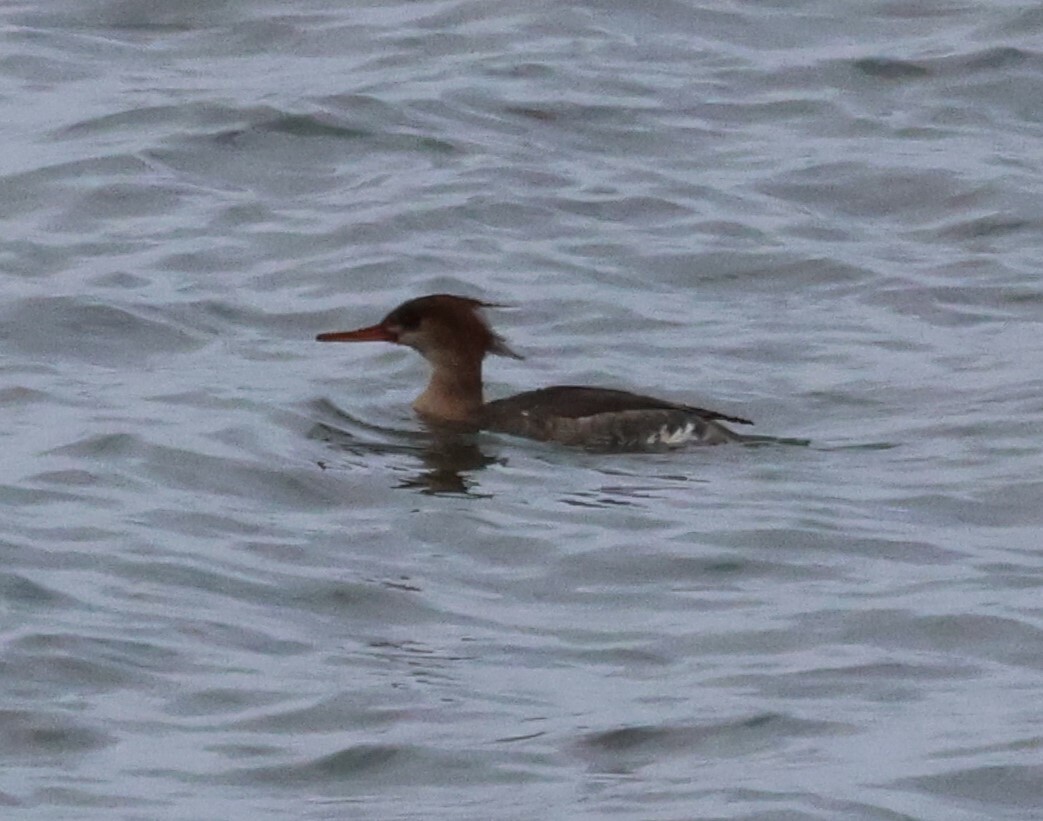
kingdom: Animalia
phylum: Chordata
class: Aves
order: Anseriformes
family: Anatidae
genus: Mergus
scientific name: Mergus serrator
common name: Red-breasted merganser
